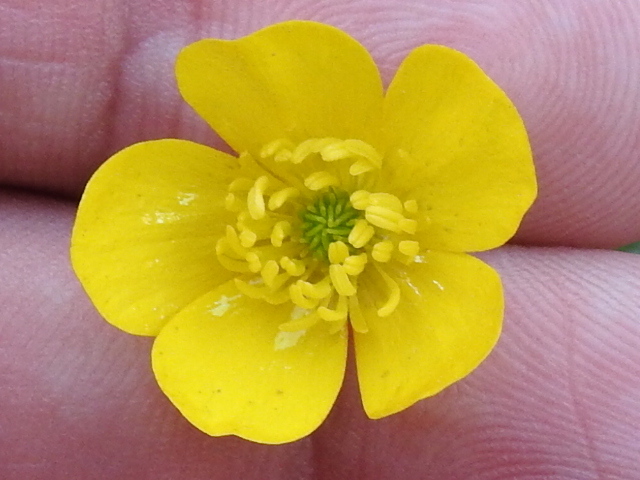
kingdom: Plantae
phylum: Tracheophyta
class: Magnoliopsida
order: Ranunculales
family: Ranunculaceae
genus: Ranunculus
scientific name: Ranunculus muricatus
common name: Rough-fruited buttercup
